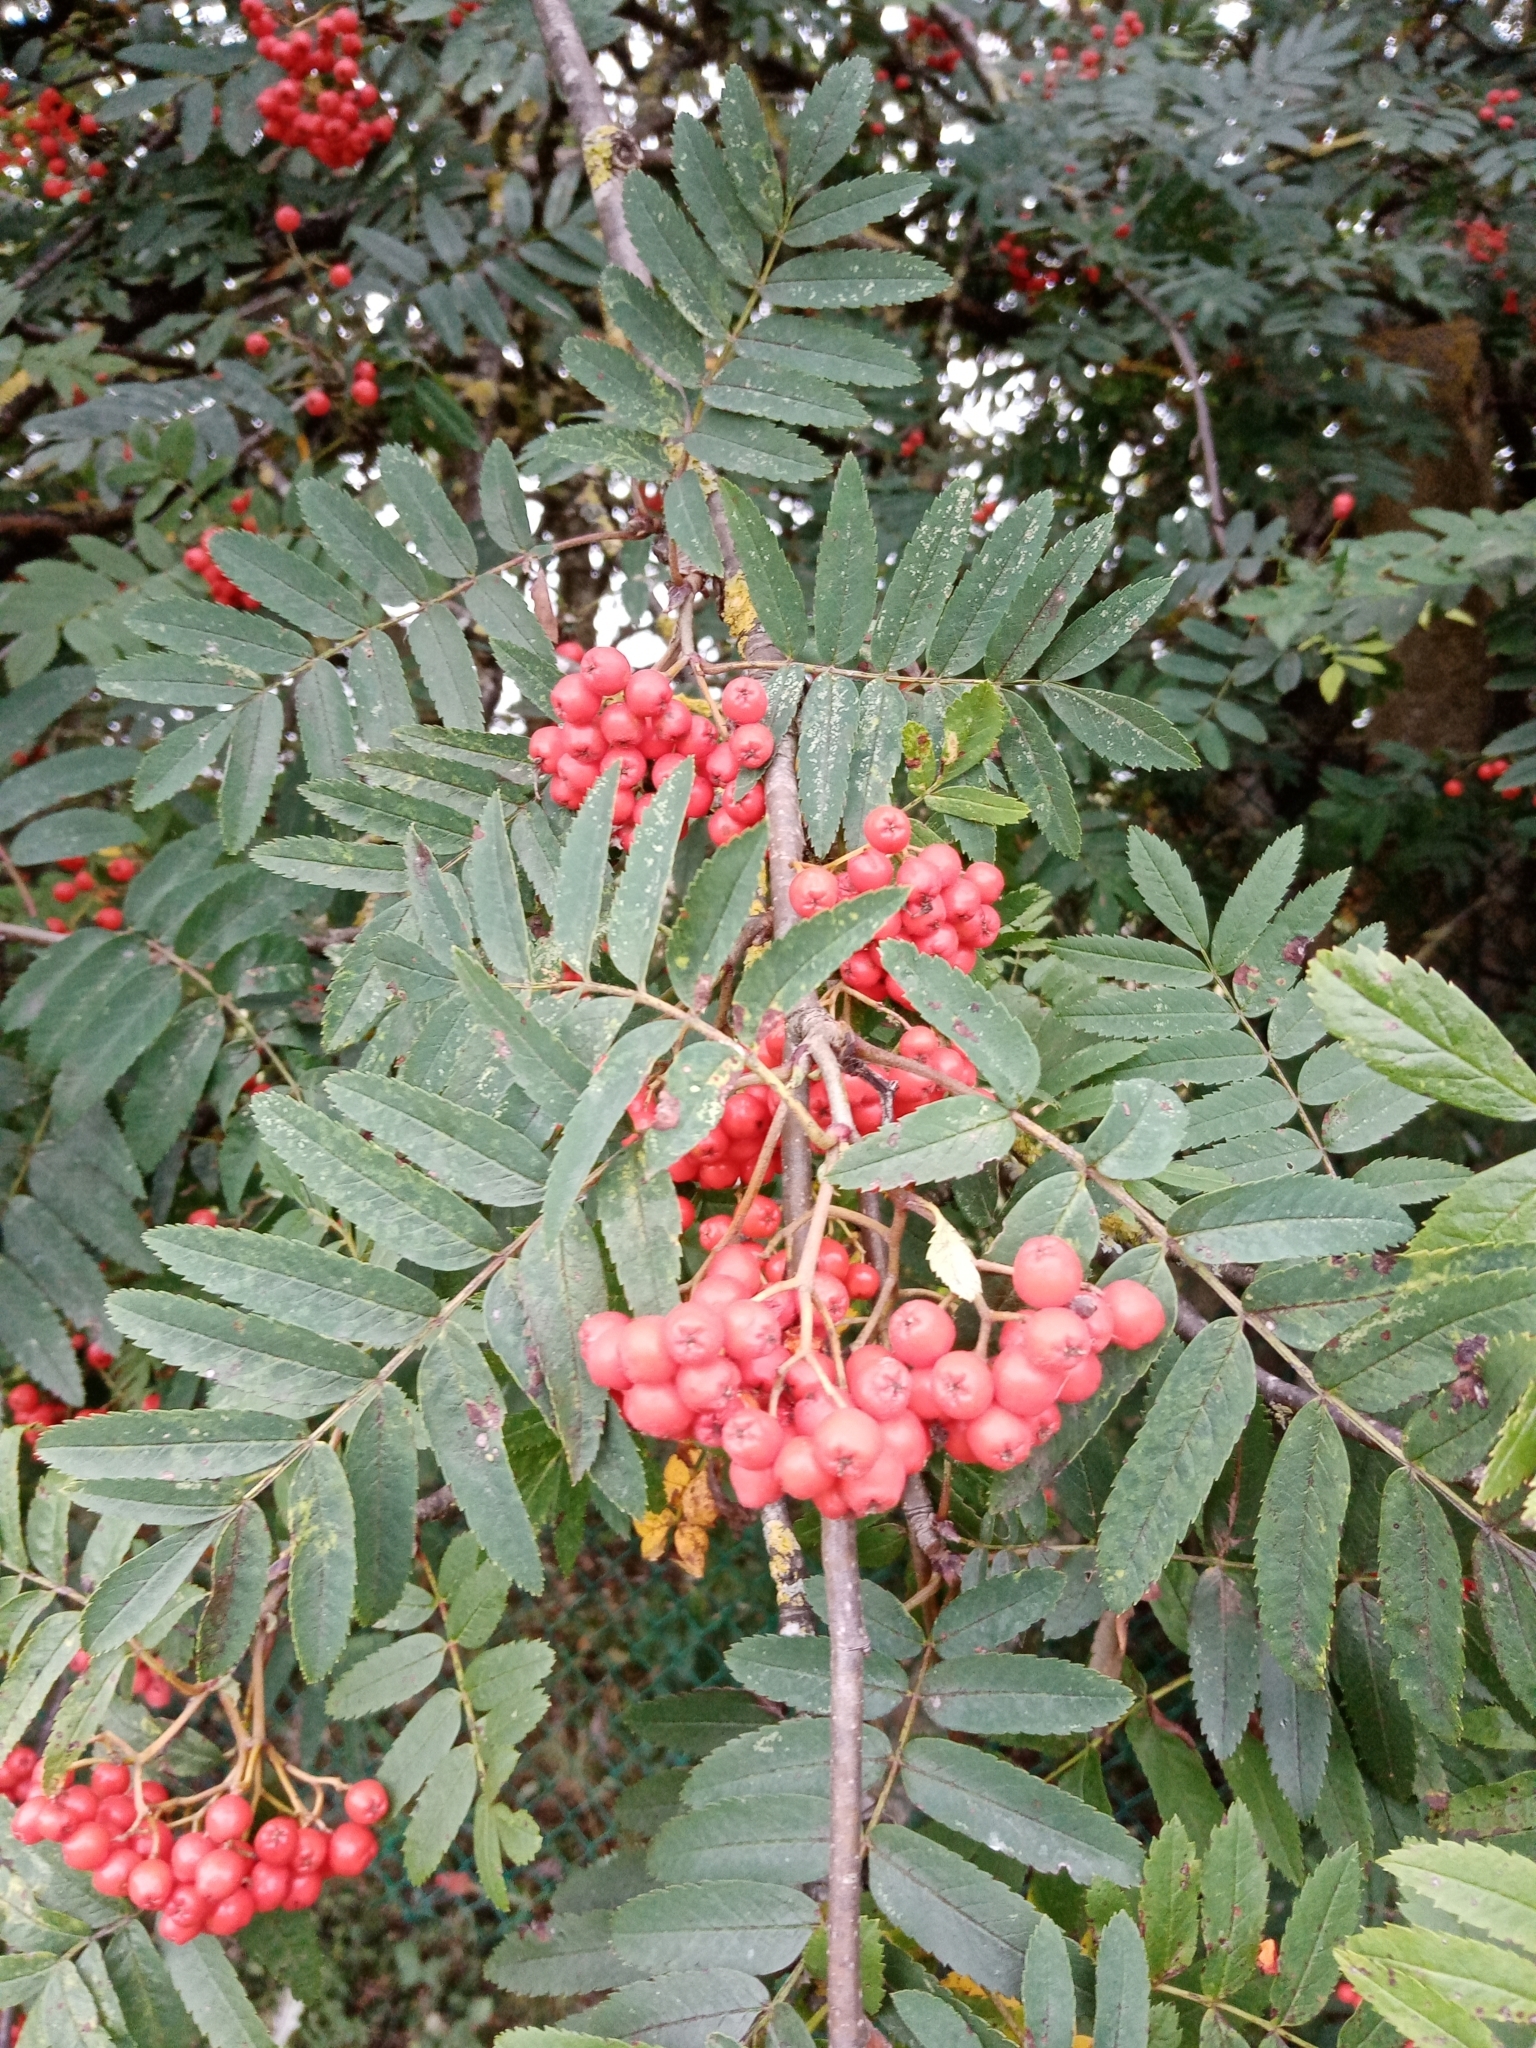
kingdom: Plantae
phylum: Tracheophyta
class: Magnoliopsida
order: Rosales
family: Rosaceae
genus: Sorbus
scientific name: Sorbus aucuparia
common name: Rowan
